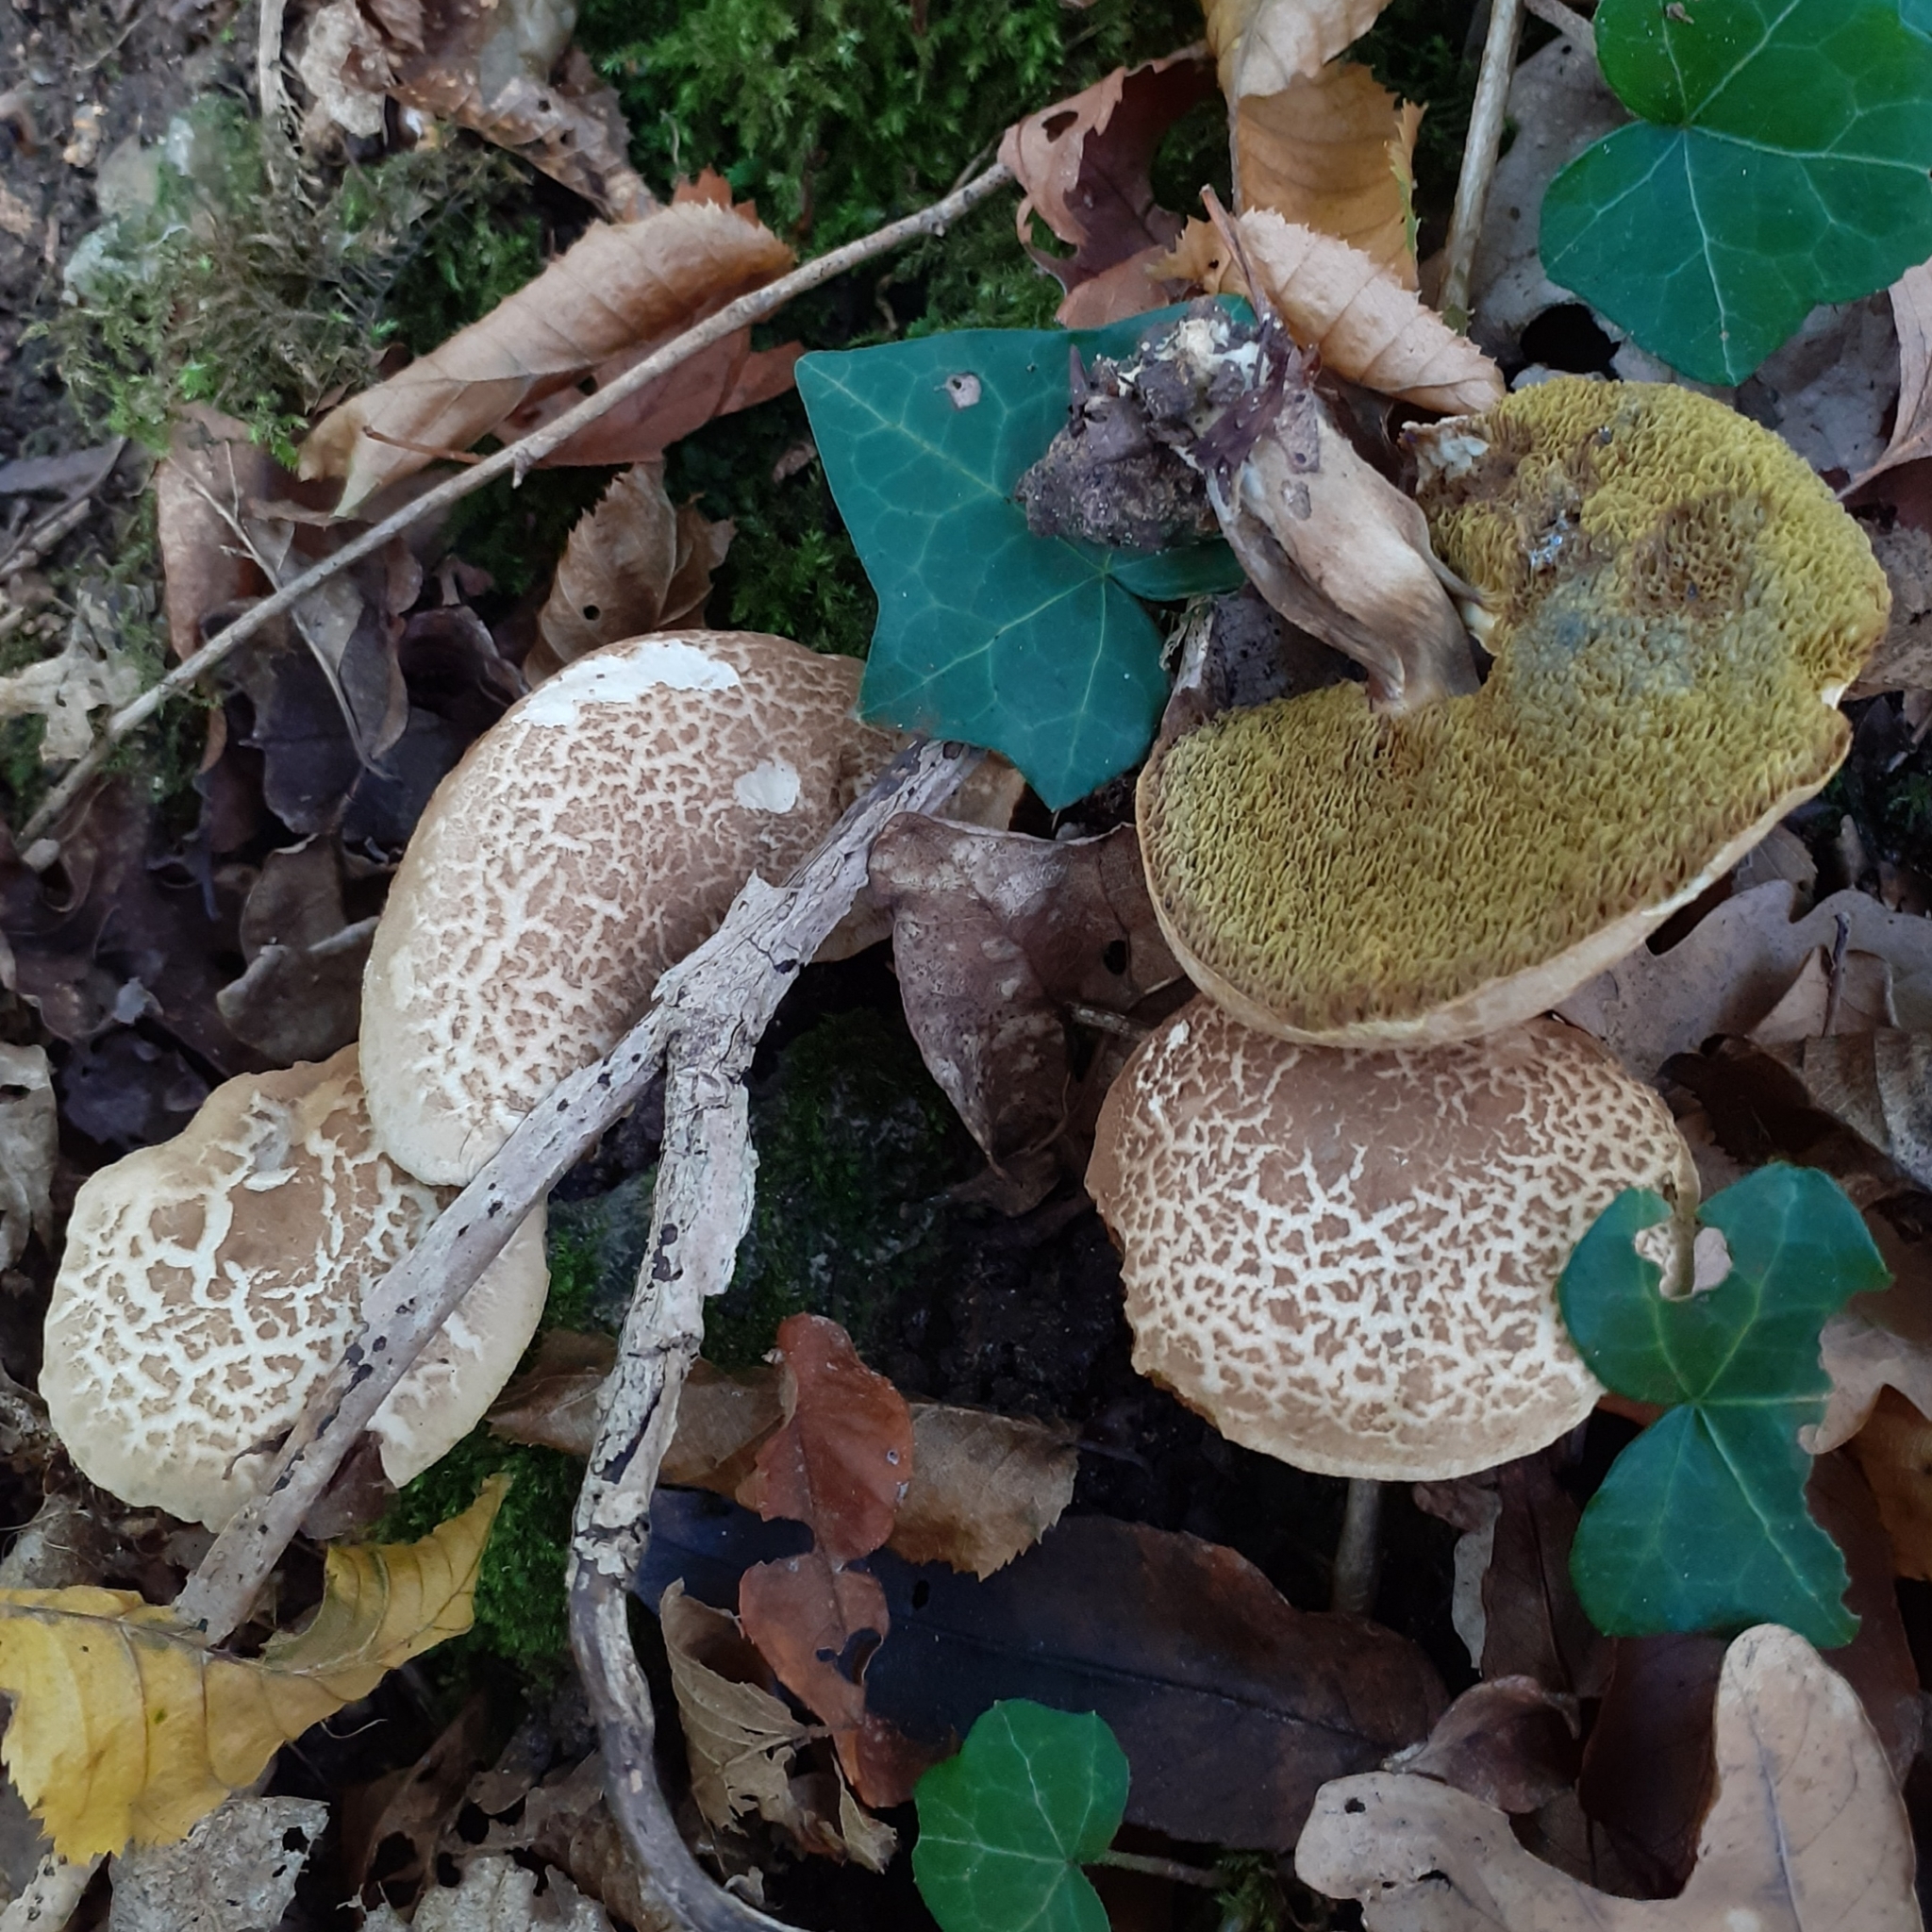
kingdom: Fungi
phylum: Basidiomycota
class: Agaricomycetes
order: Boletales
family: Boletaceae
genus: Xerocomellus
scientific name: Xerocomellus chrysenteron
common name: Red-cracking bolete
